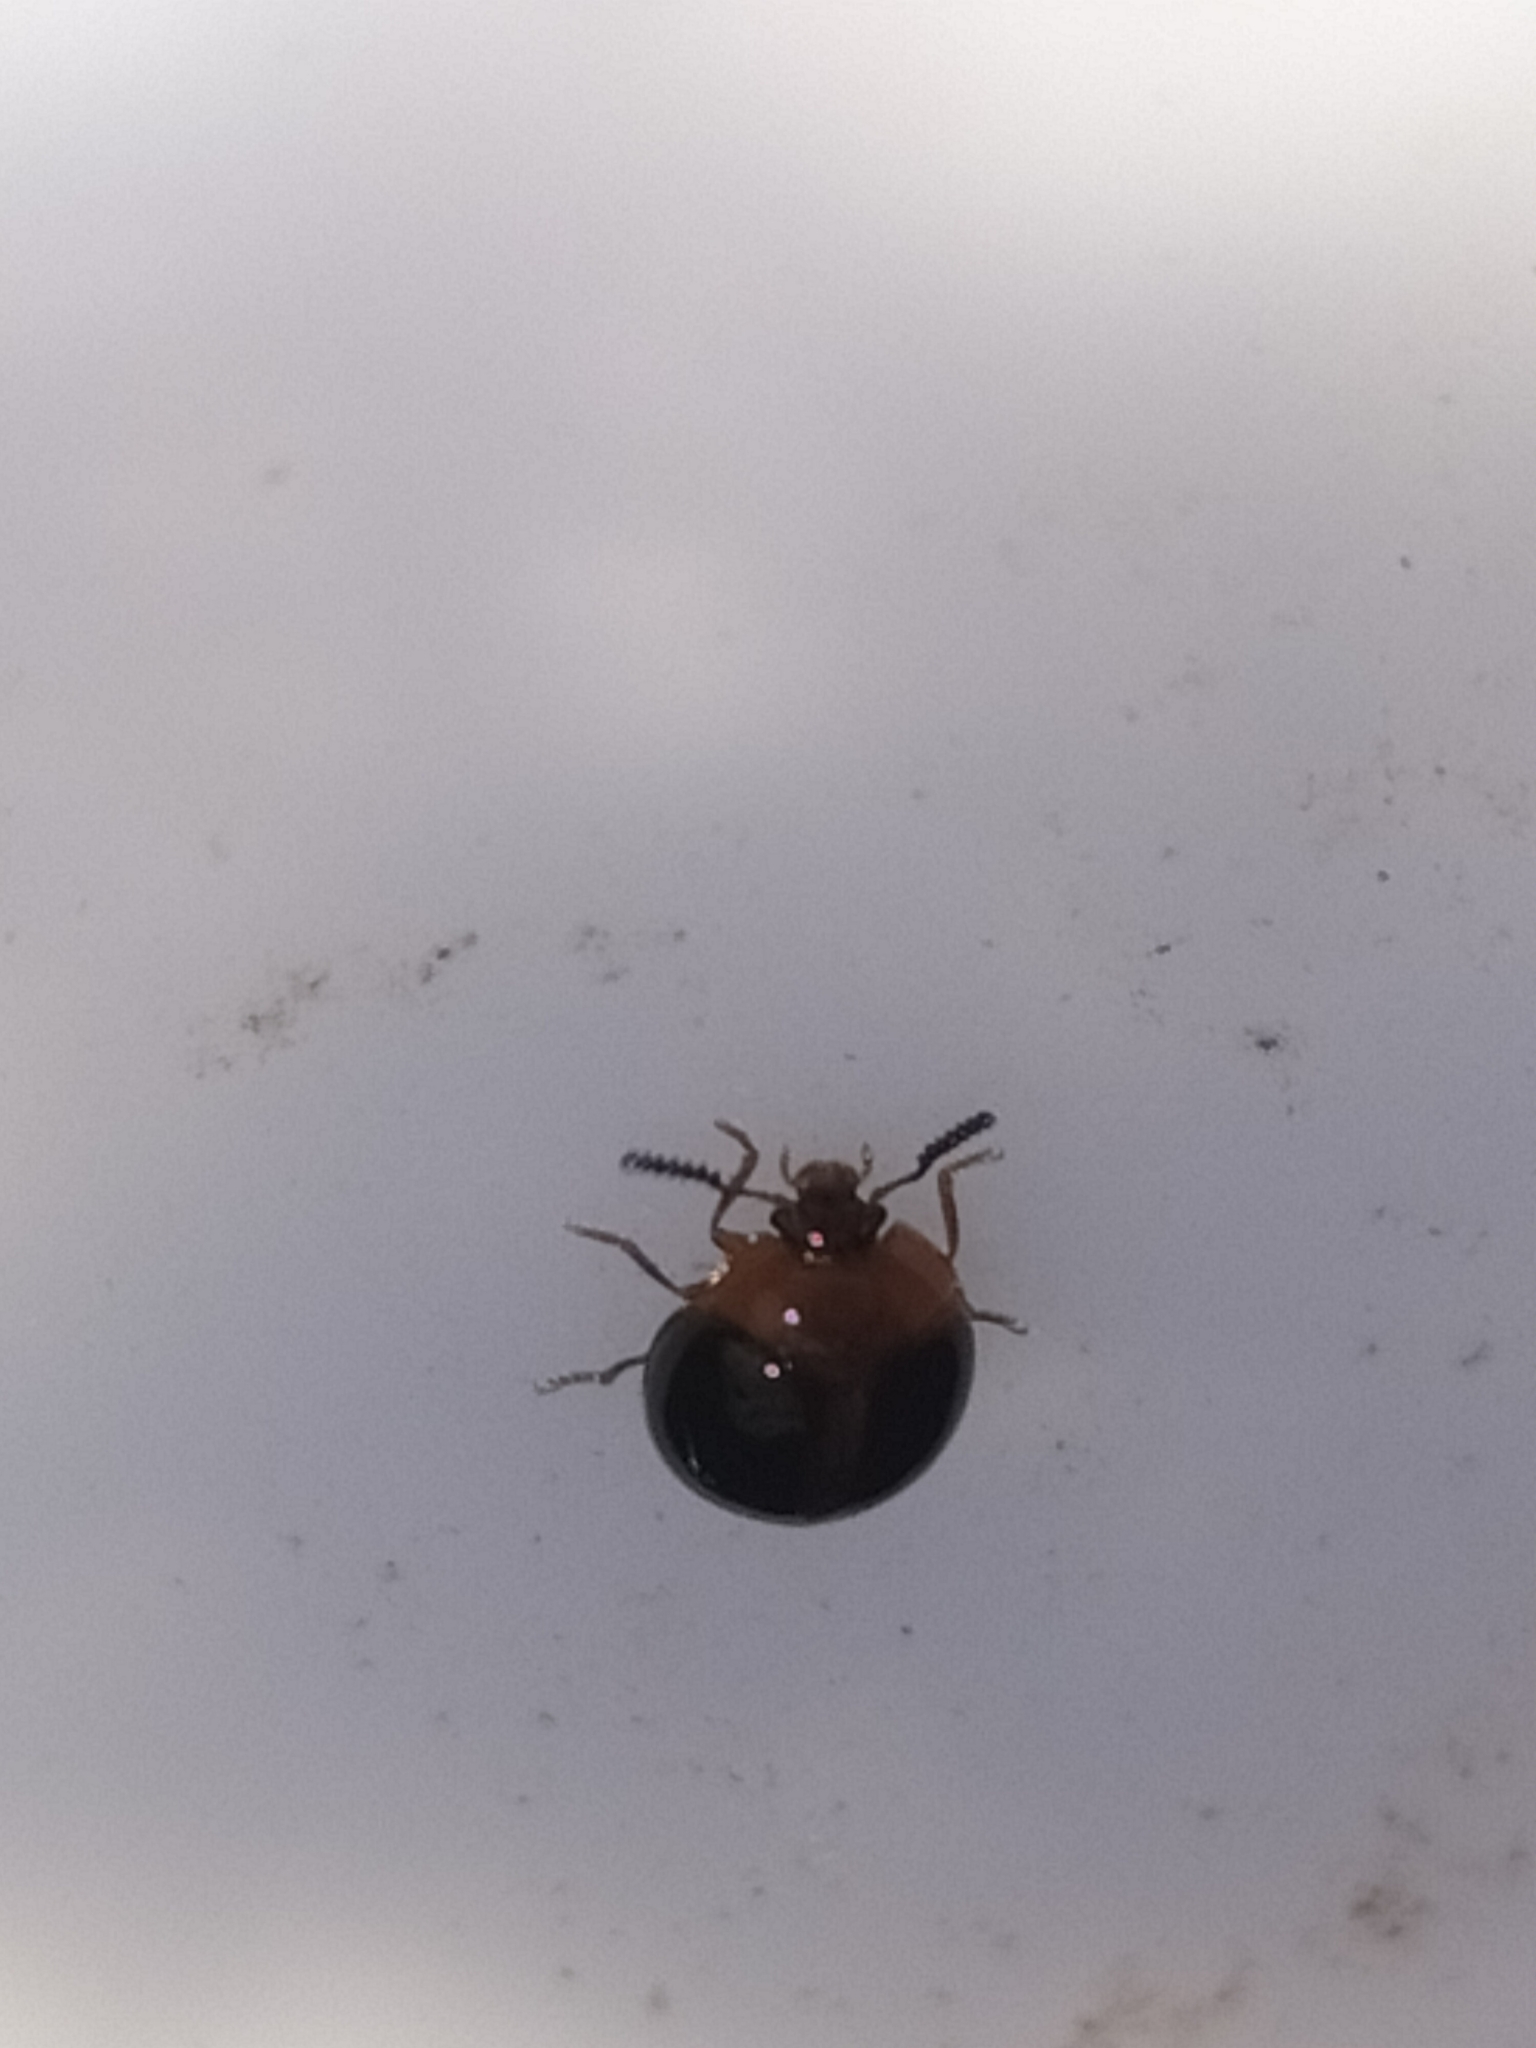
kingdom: Animalia
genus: Leiochrodes
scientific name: Leiochrodes
